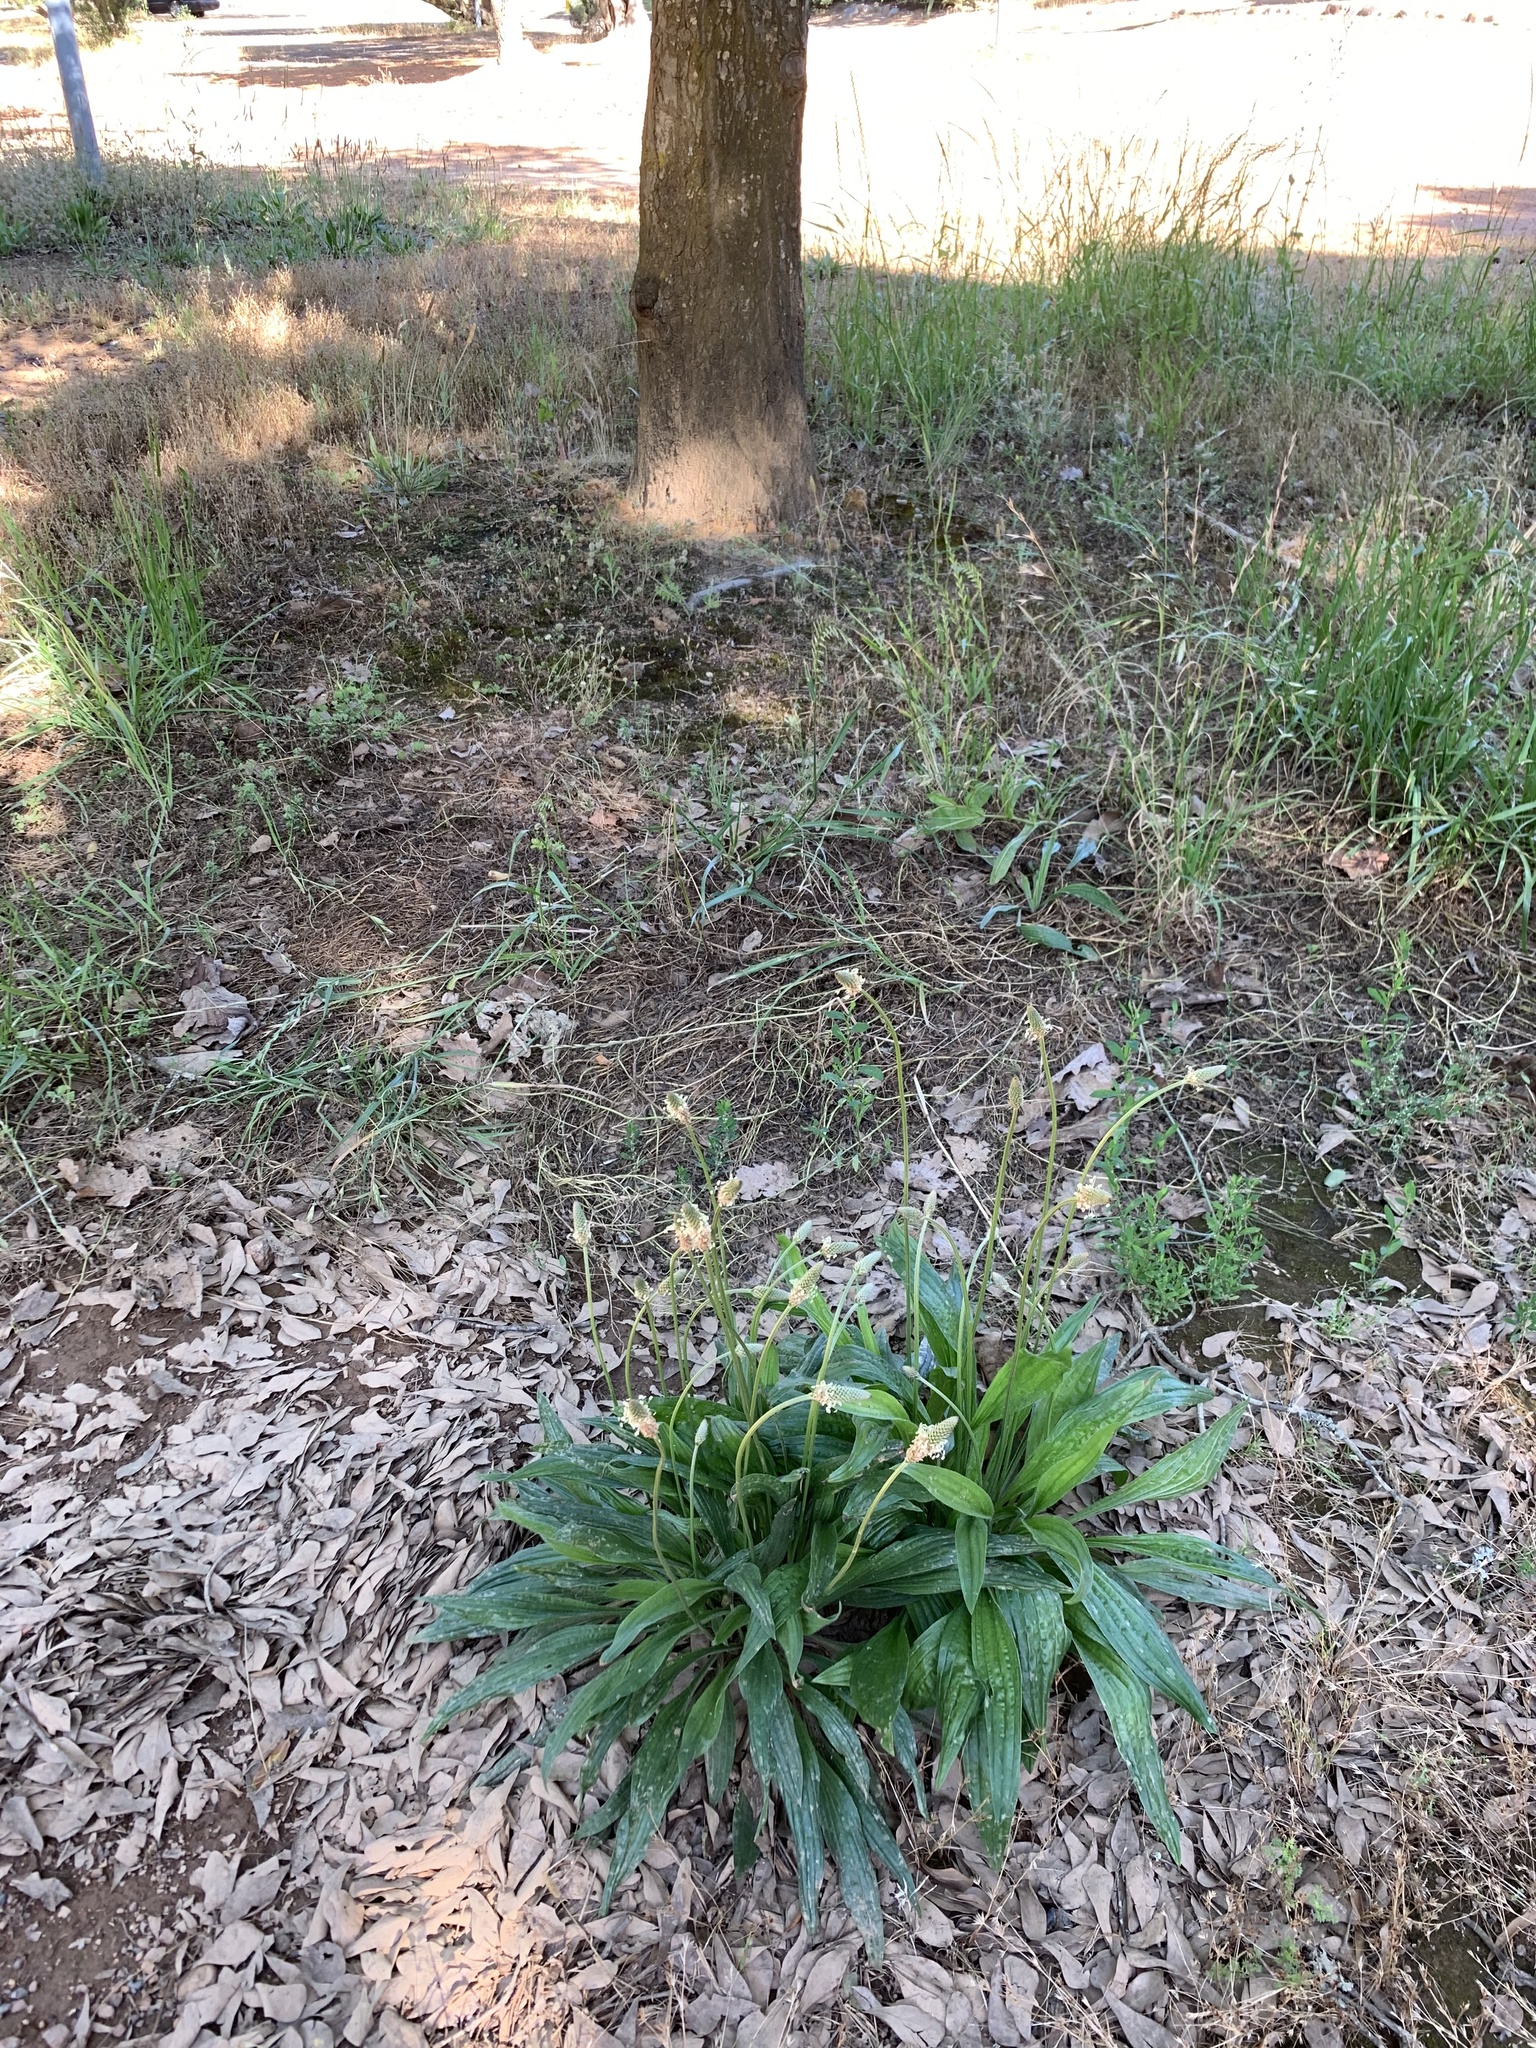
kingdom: Plantae
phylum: Tracheophyta
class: Magnoliopsida
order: Lamiales
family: Plantaginaceae
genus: Plantago
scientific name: Plantago lanceolata
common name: Ribwort plantain
